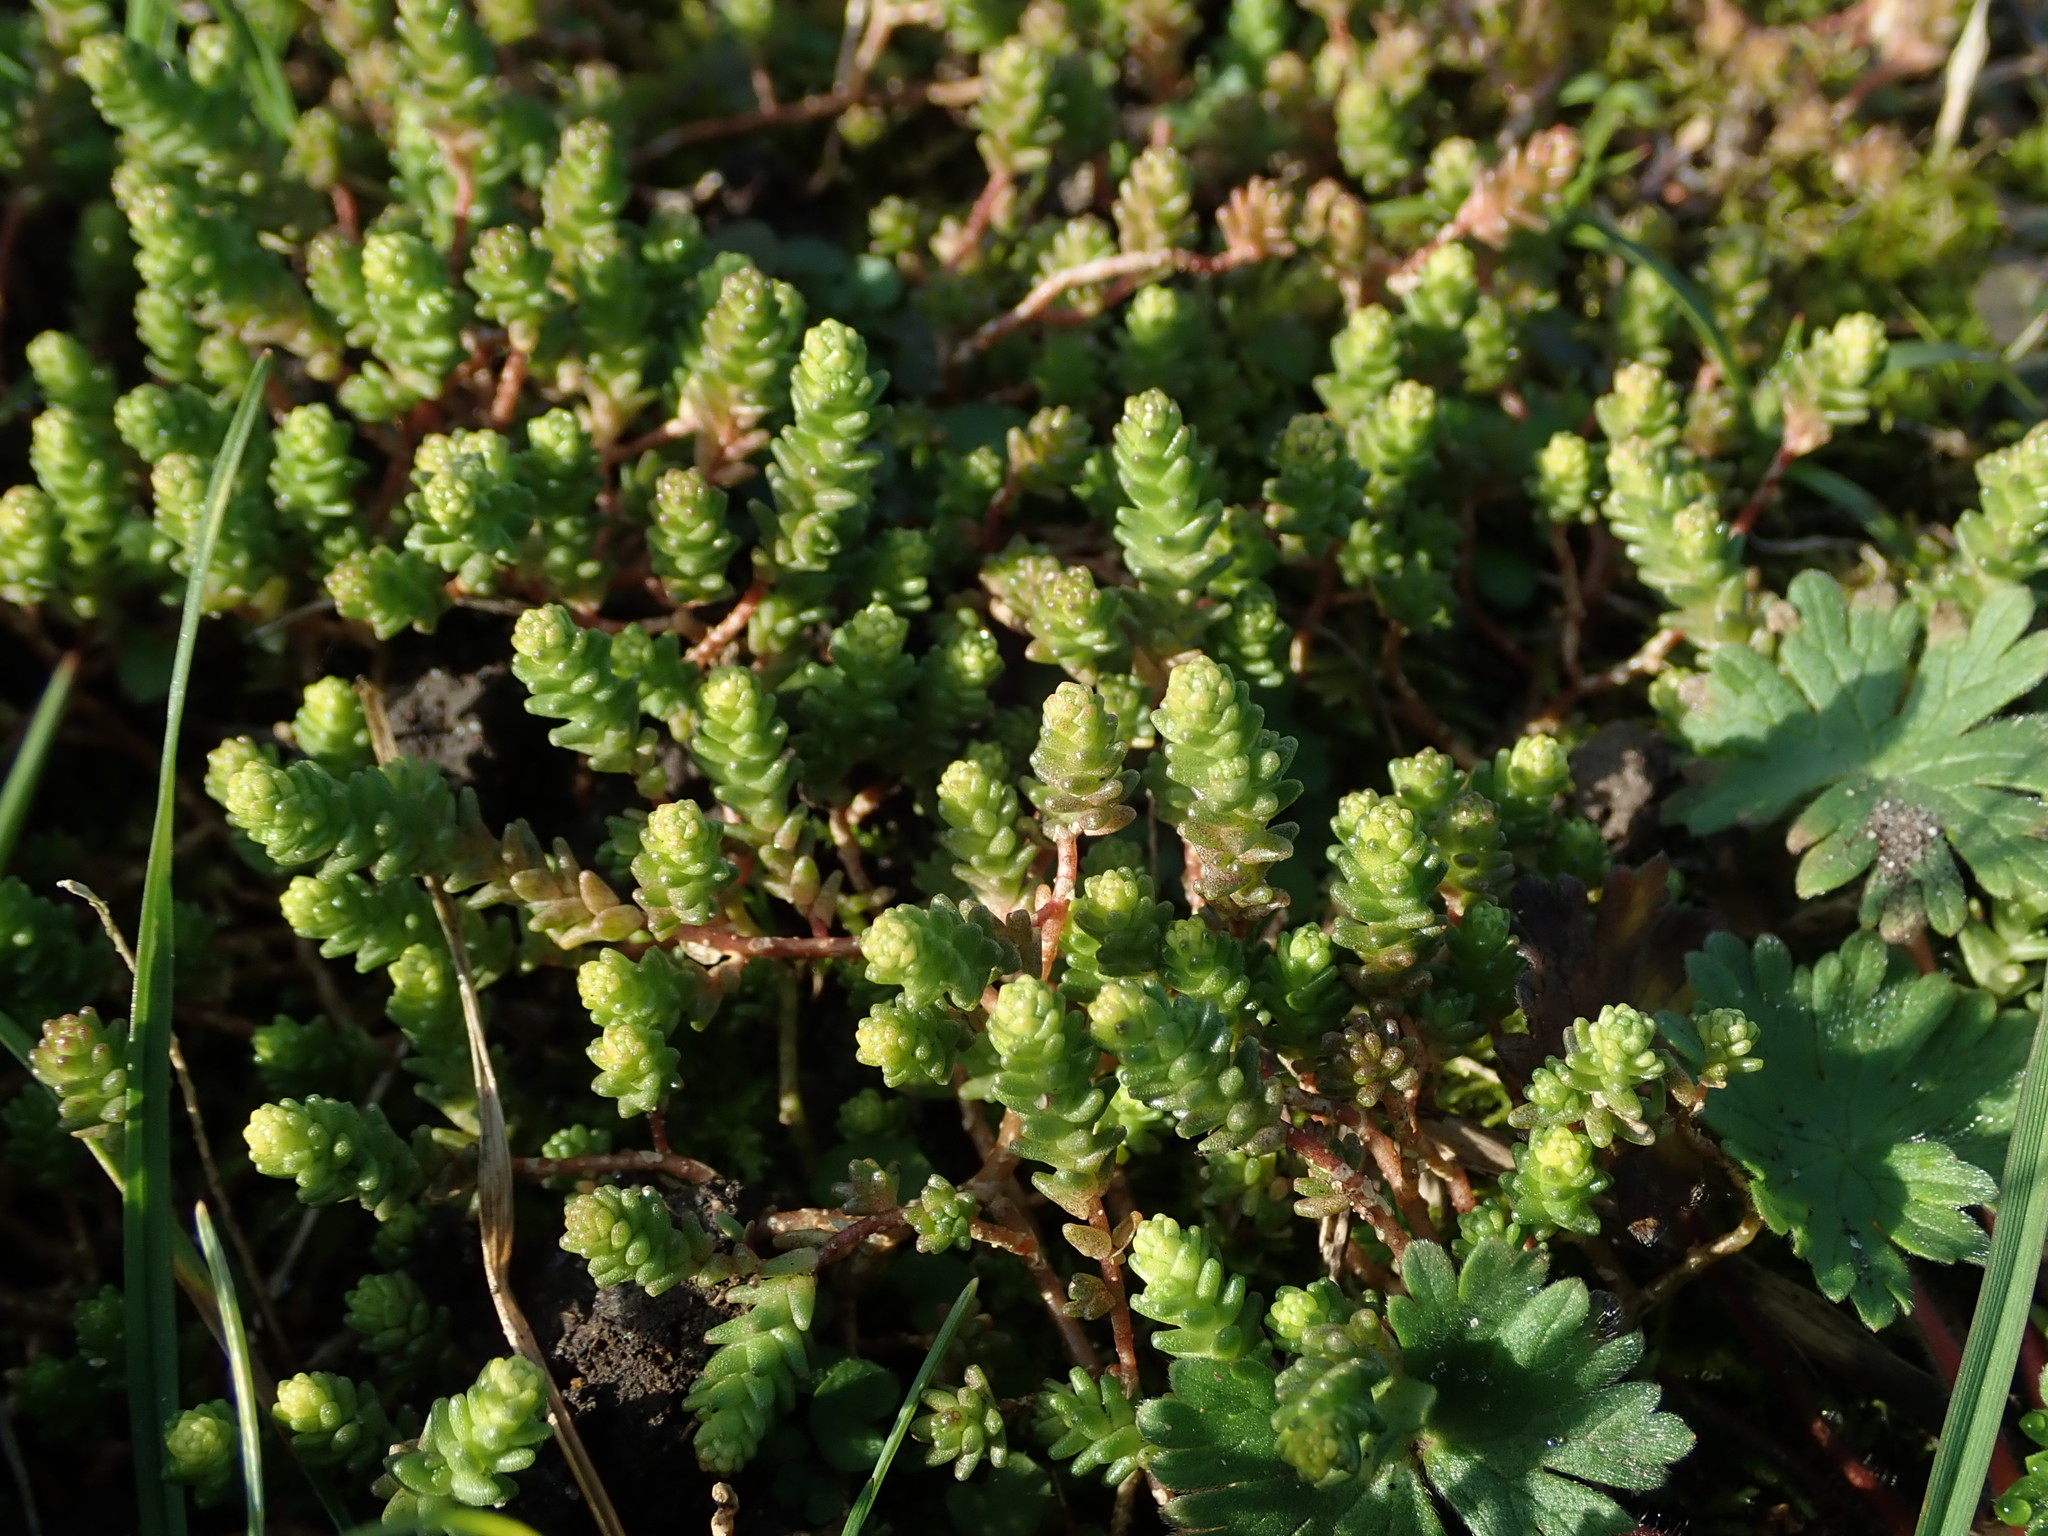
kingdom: Plantae
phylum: Tracheophyta
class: Magnoliopsida
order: Saxifragales
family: Crassulaceae
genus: Sedum
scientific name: Sedum acre
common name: Biting stonecrop
